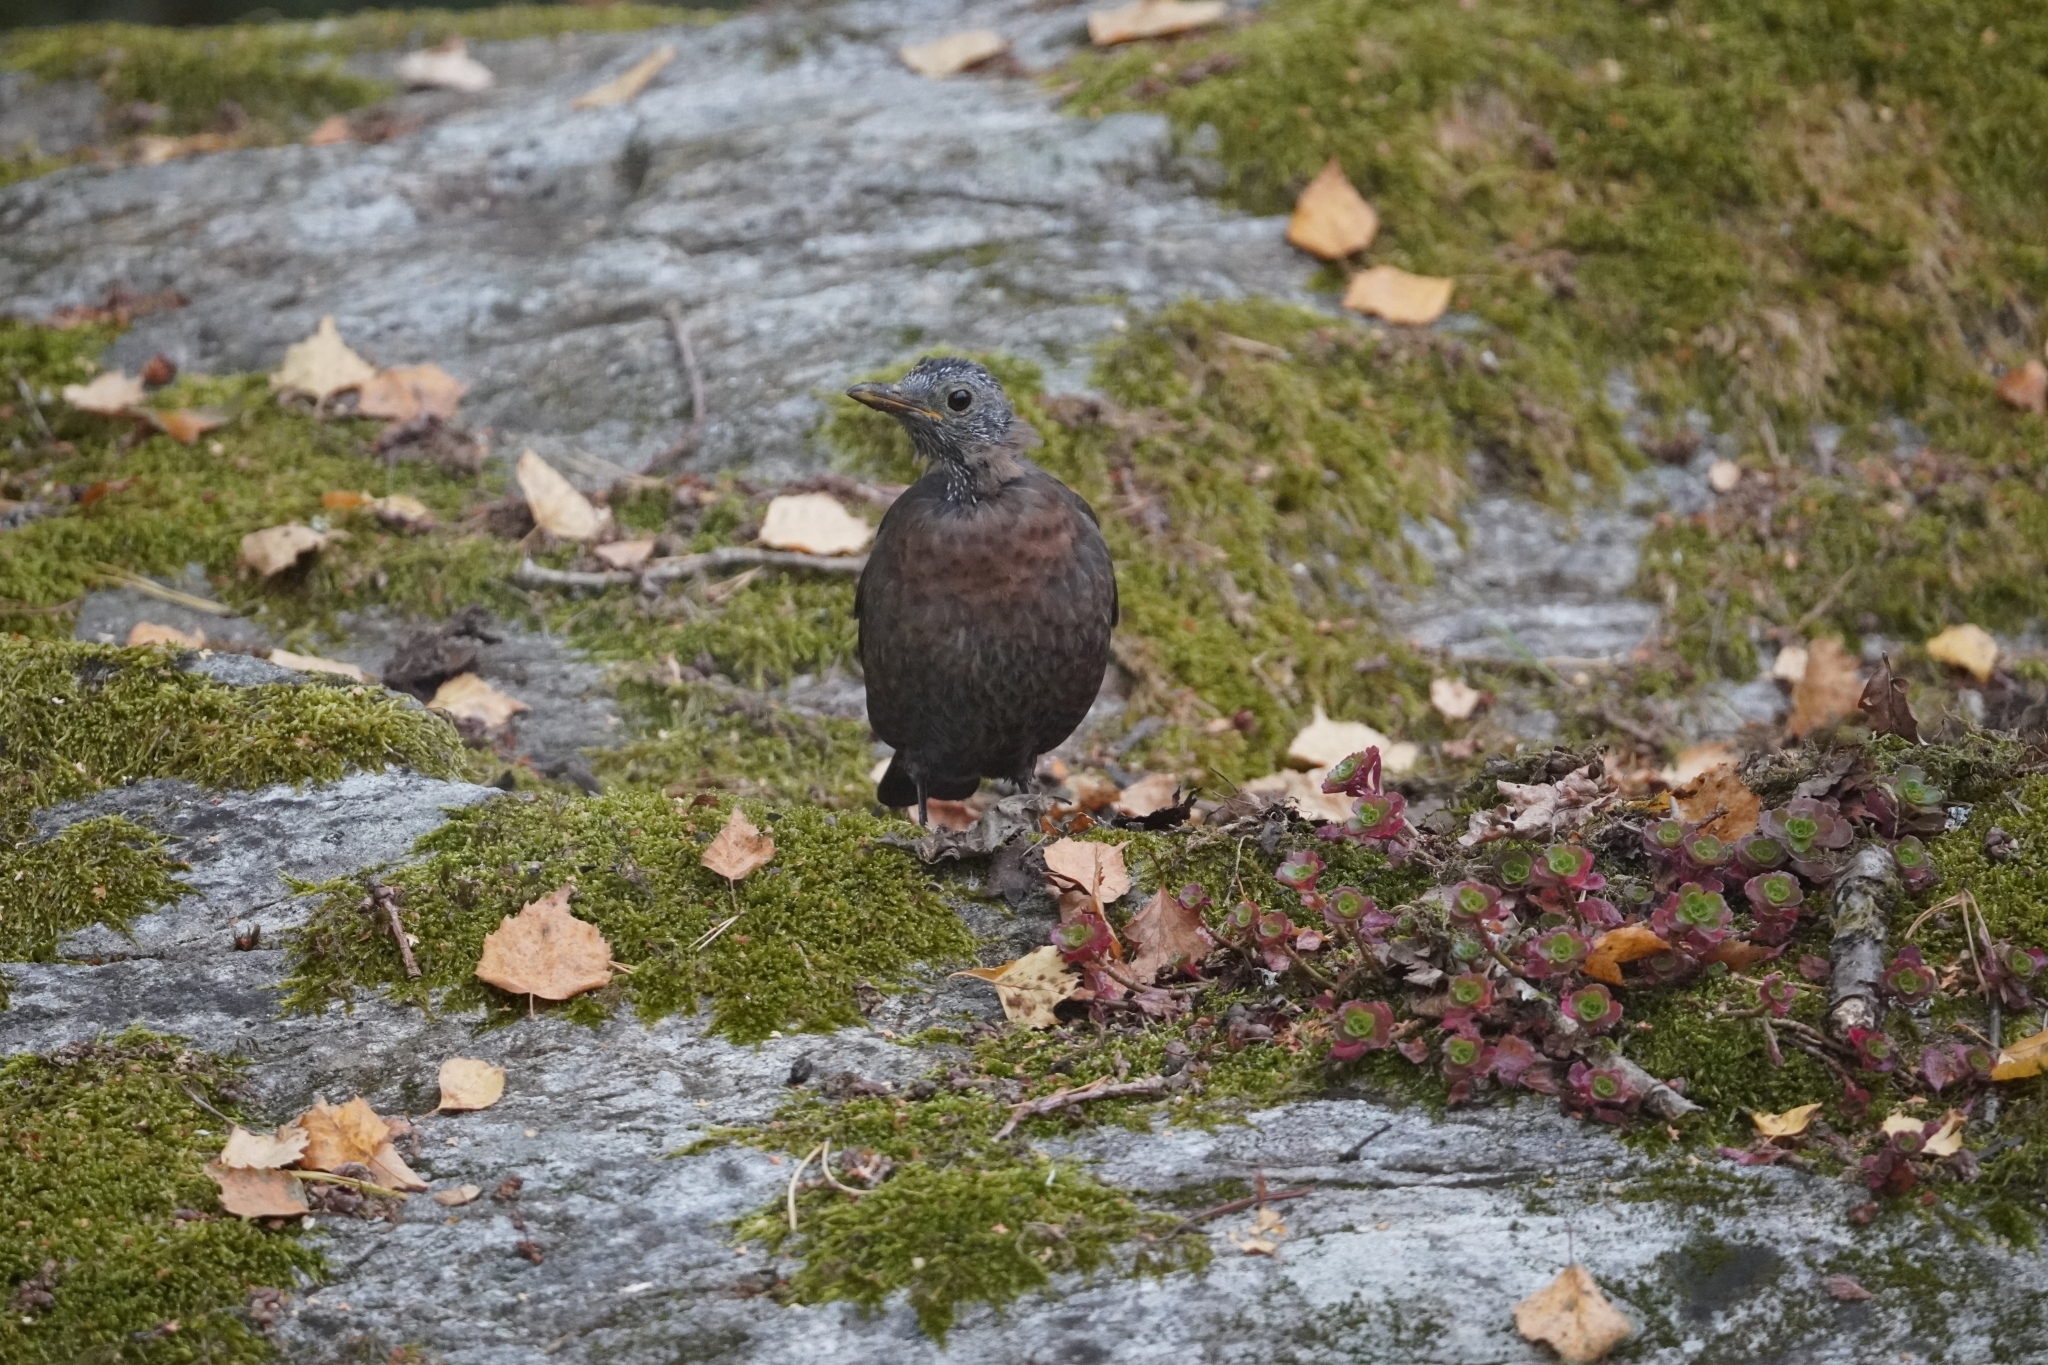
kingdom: Animalia
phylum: Chordata
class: Aves
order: Passeriformes
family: Turdidae
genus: Turdus
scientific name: Turdus merula
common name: Common blackbird
